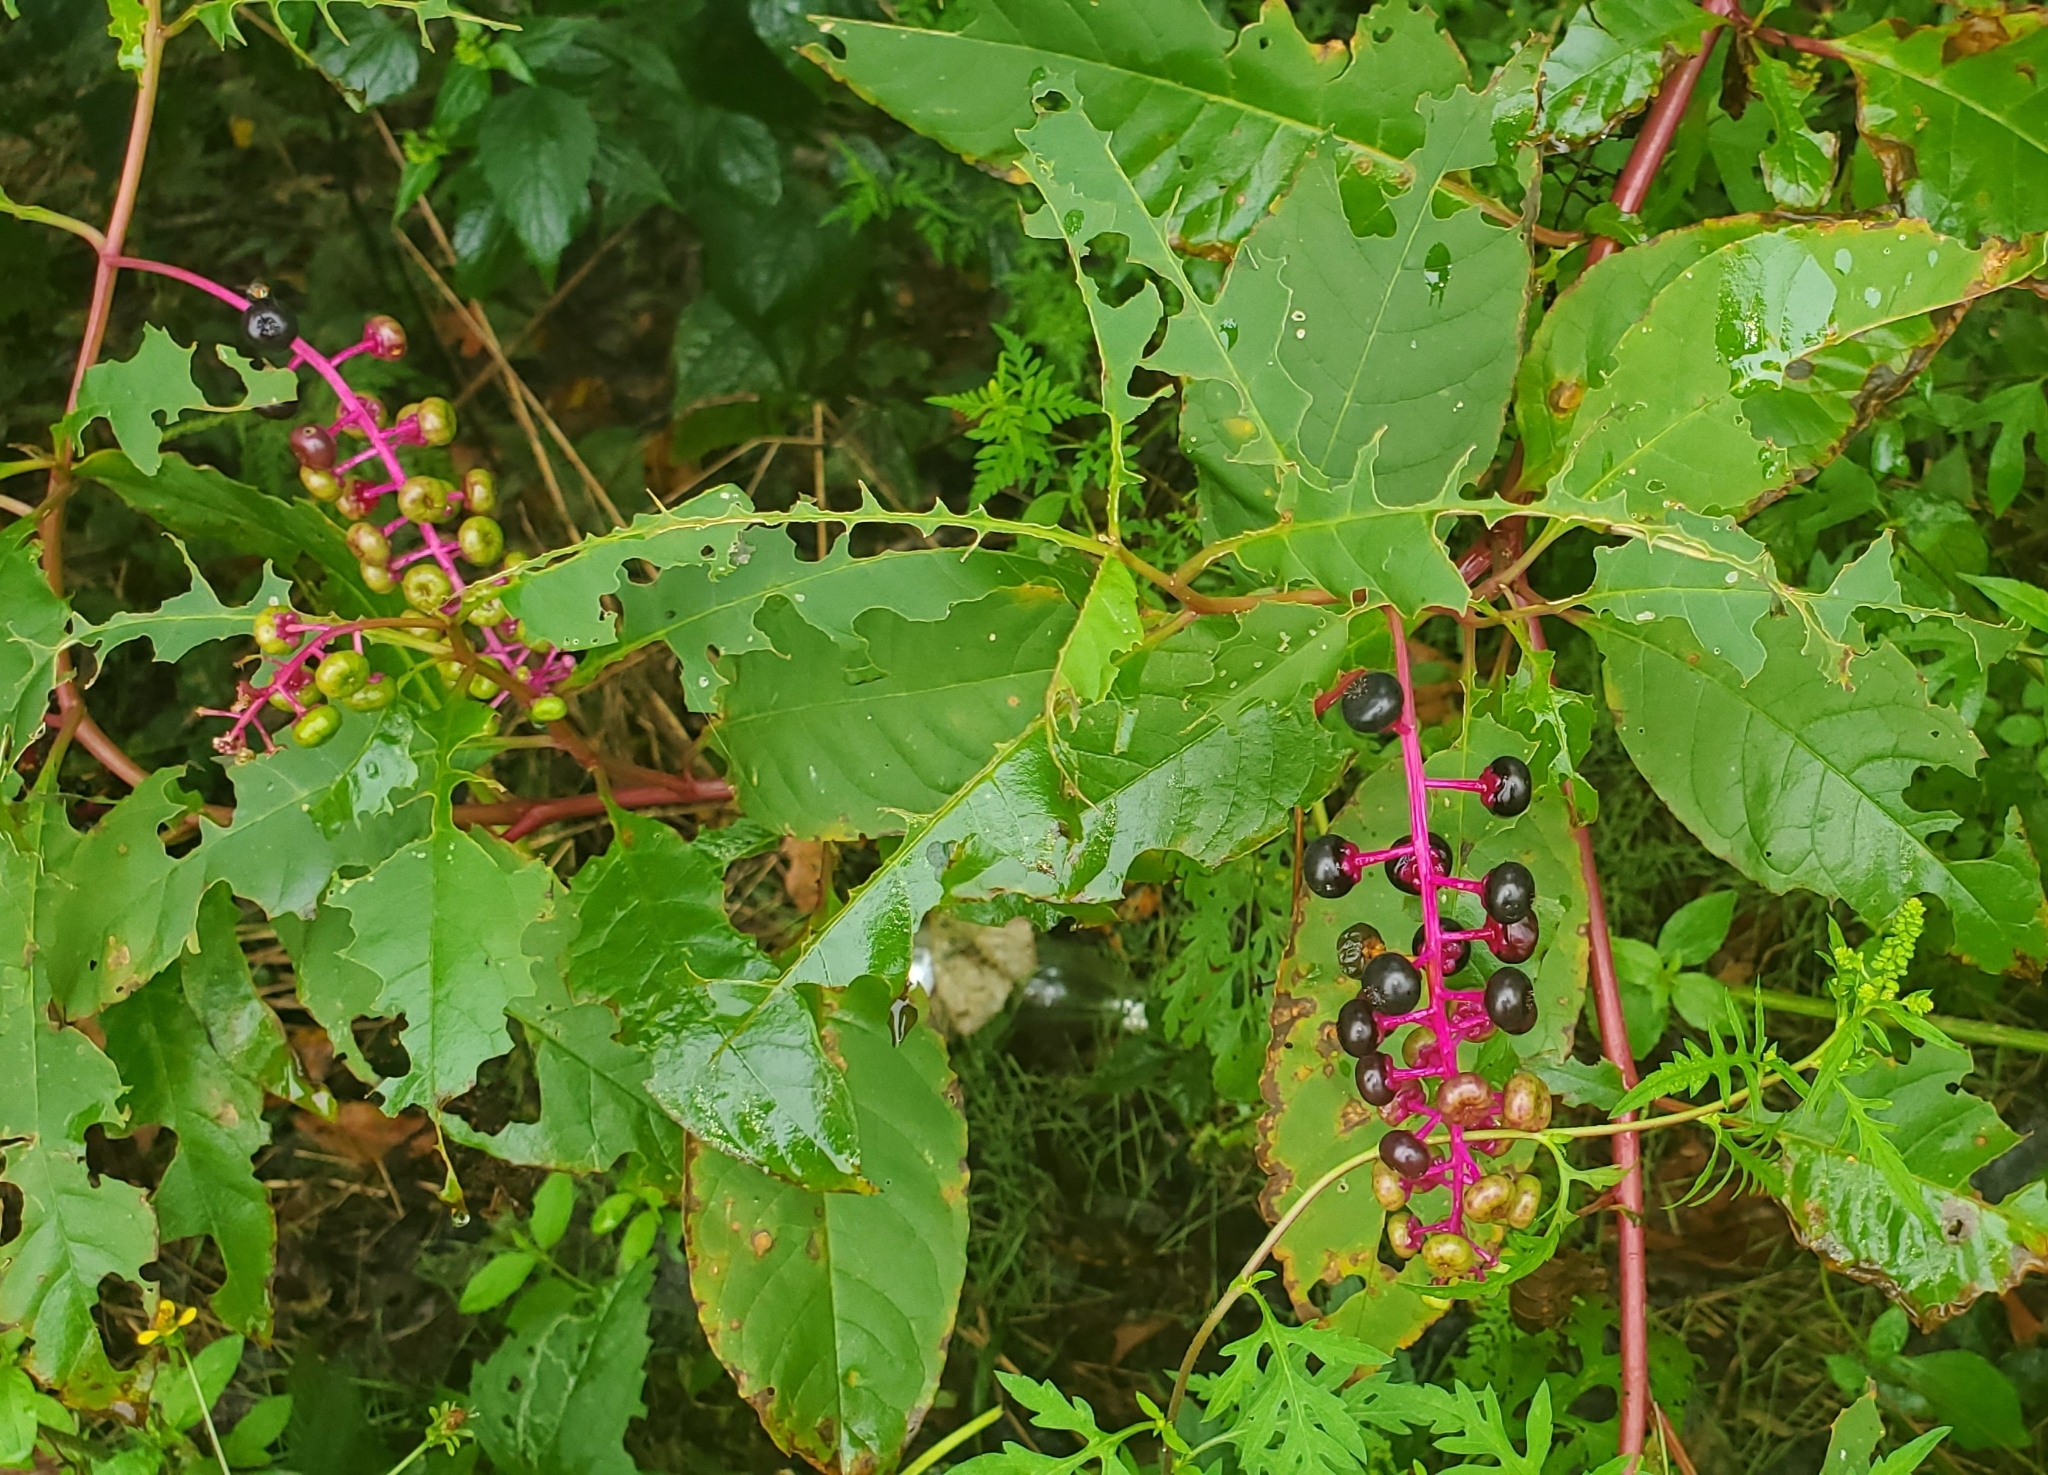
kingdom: Plantae
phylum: Tracheophyta
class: Magnoliopsida
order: Caryophyllales
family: Phytolaccaceae
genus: Phytolacca
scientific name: Phytolacca americana
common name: American pokeweed
